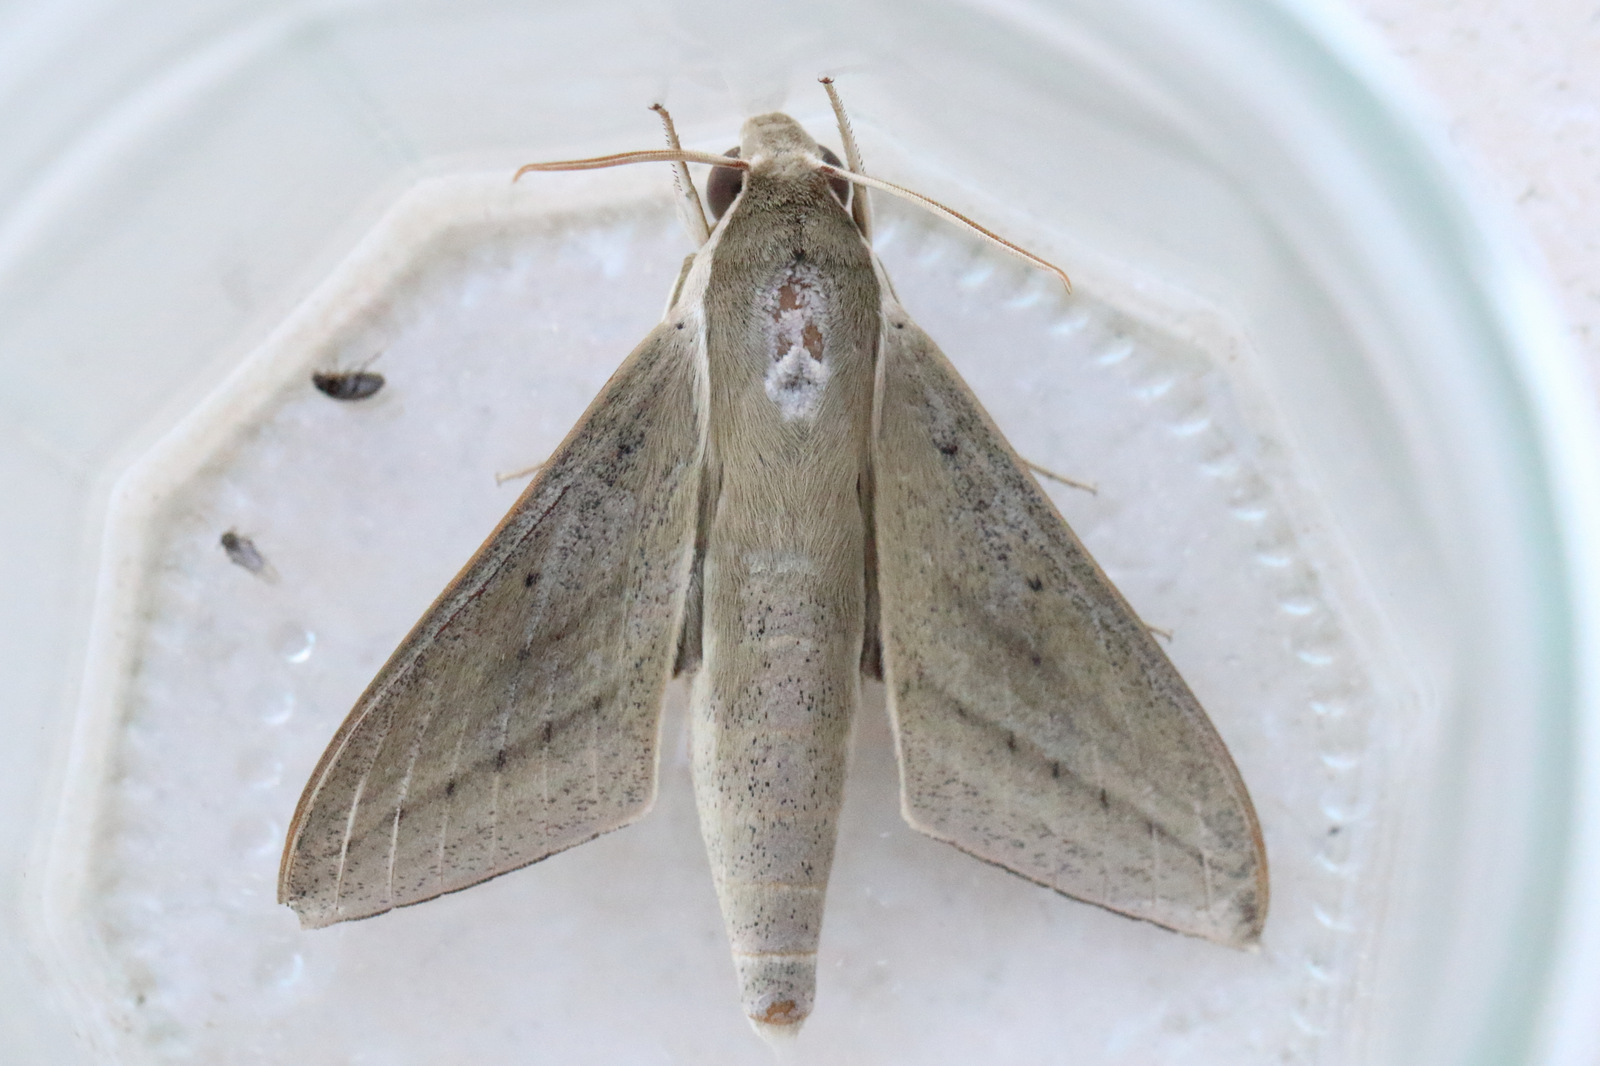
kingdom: Animalia
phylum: Arthropoda
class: Insecta
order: Lepidoptera
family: Sphingidae
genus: Theretra
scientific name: Theretra latreillii
